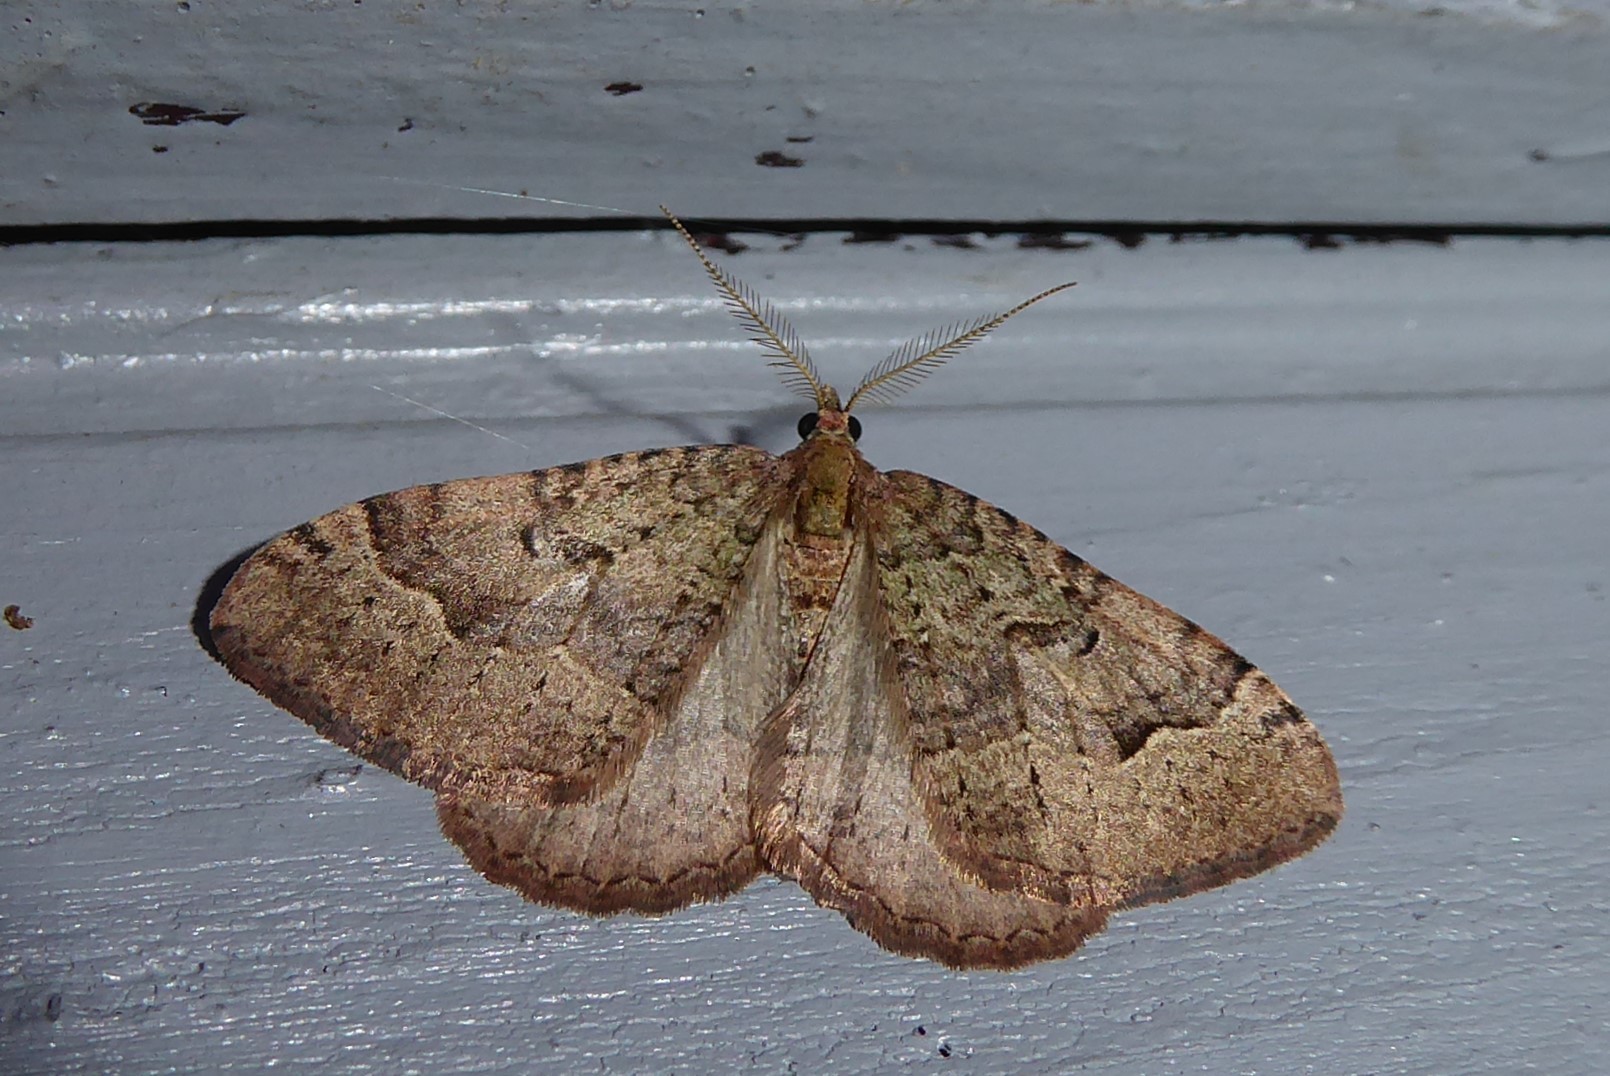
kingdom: Animalia
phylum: Arthropoda
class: Insecta
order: Lepidoptera
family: Geometridae
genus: Epyaxa
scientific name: Epyaxa rosearia
